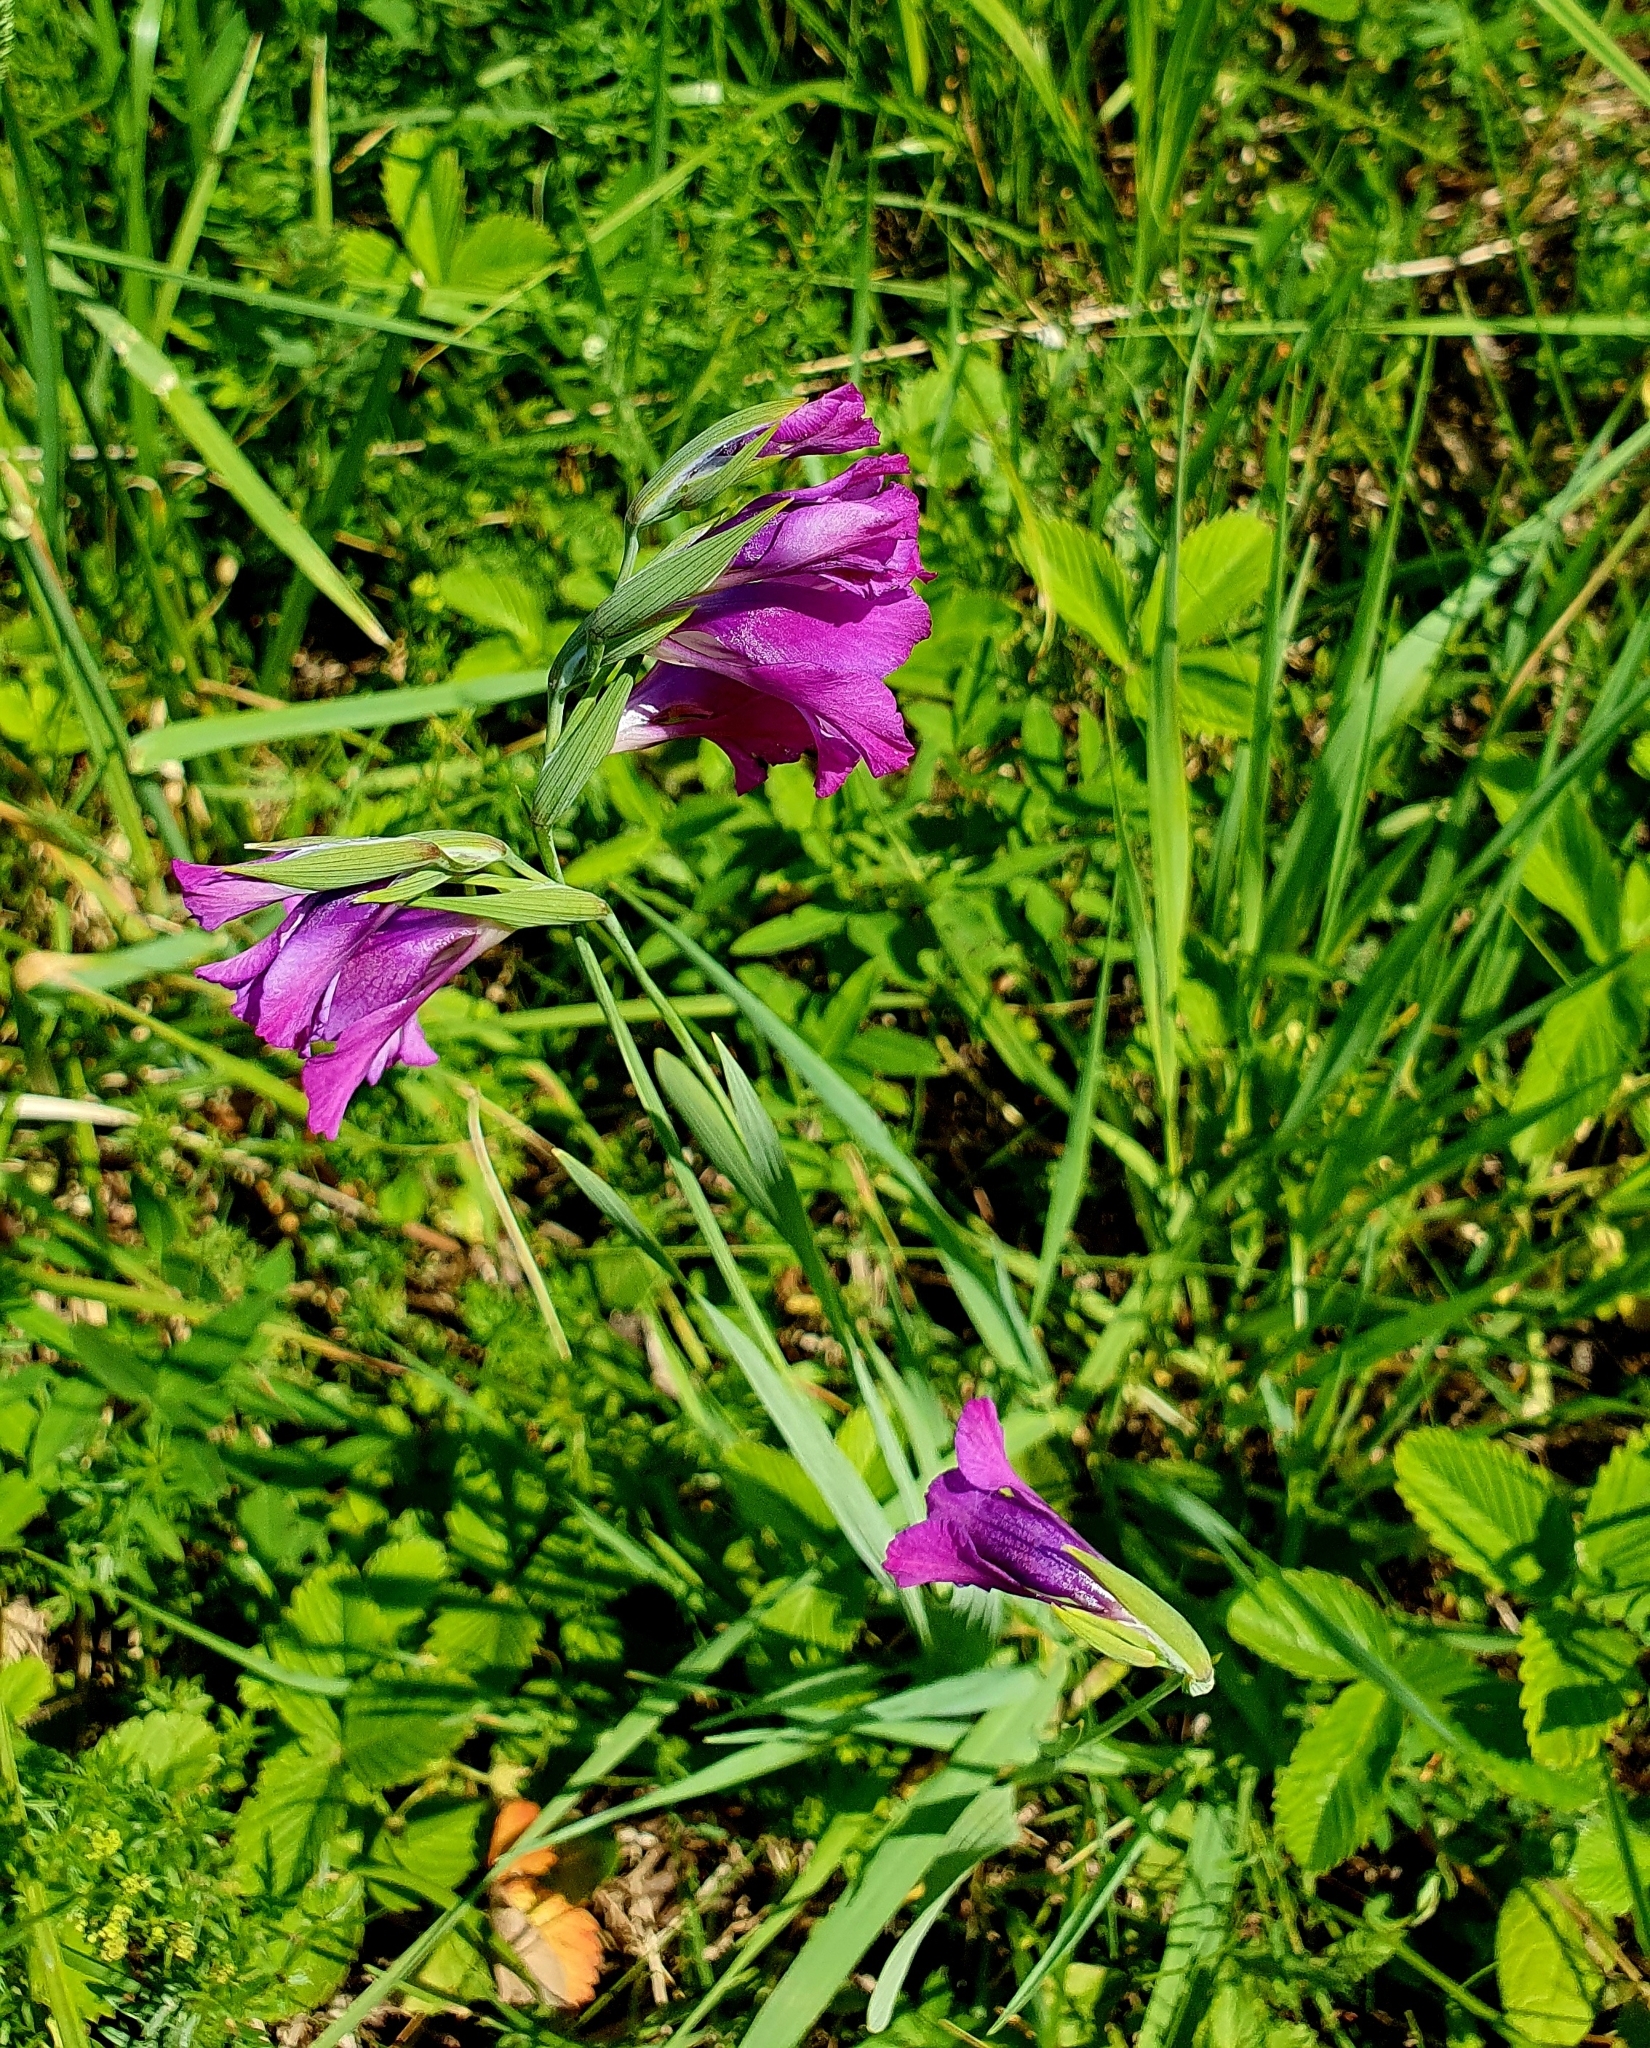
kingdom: Plantae
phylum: Tracheophyta
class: Liliopsida
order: Asparagales
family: Iridaceae
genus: Gladiolus
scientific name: Gladiolus tenuis
